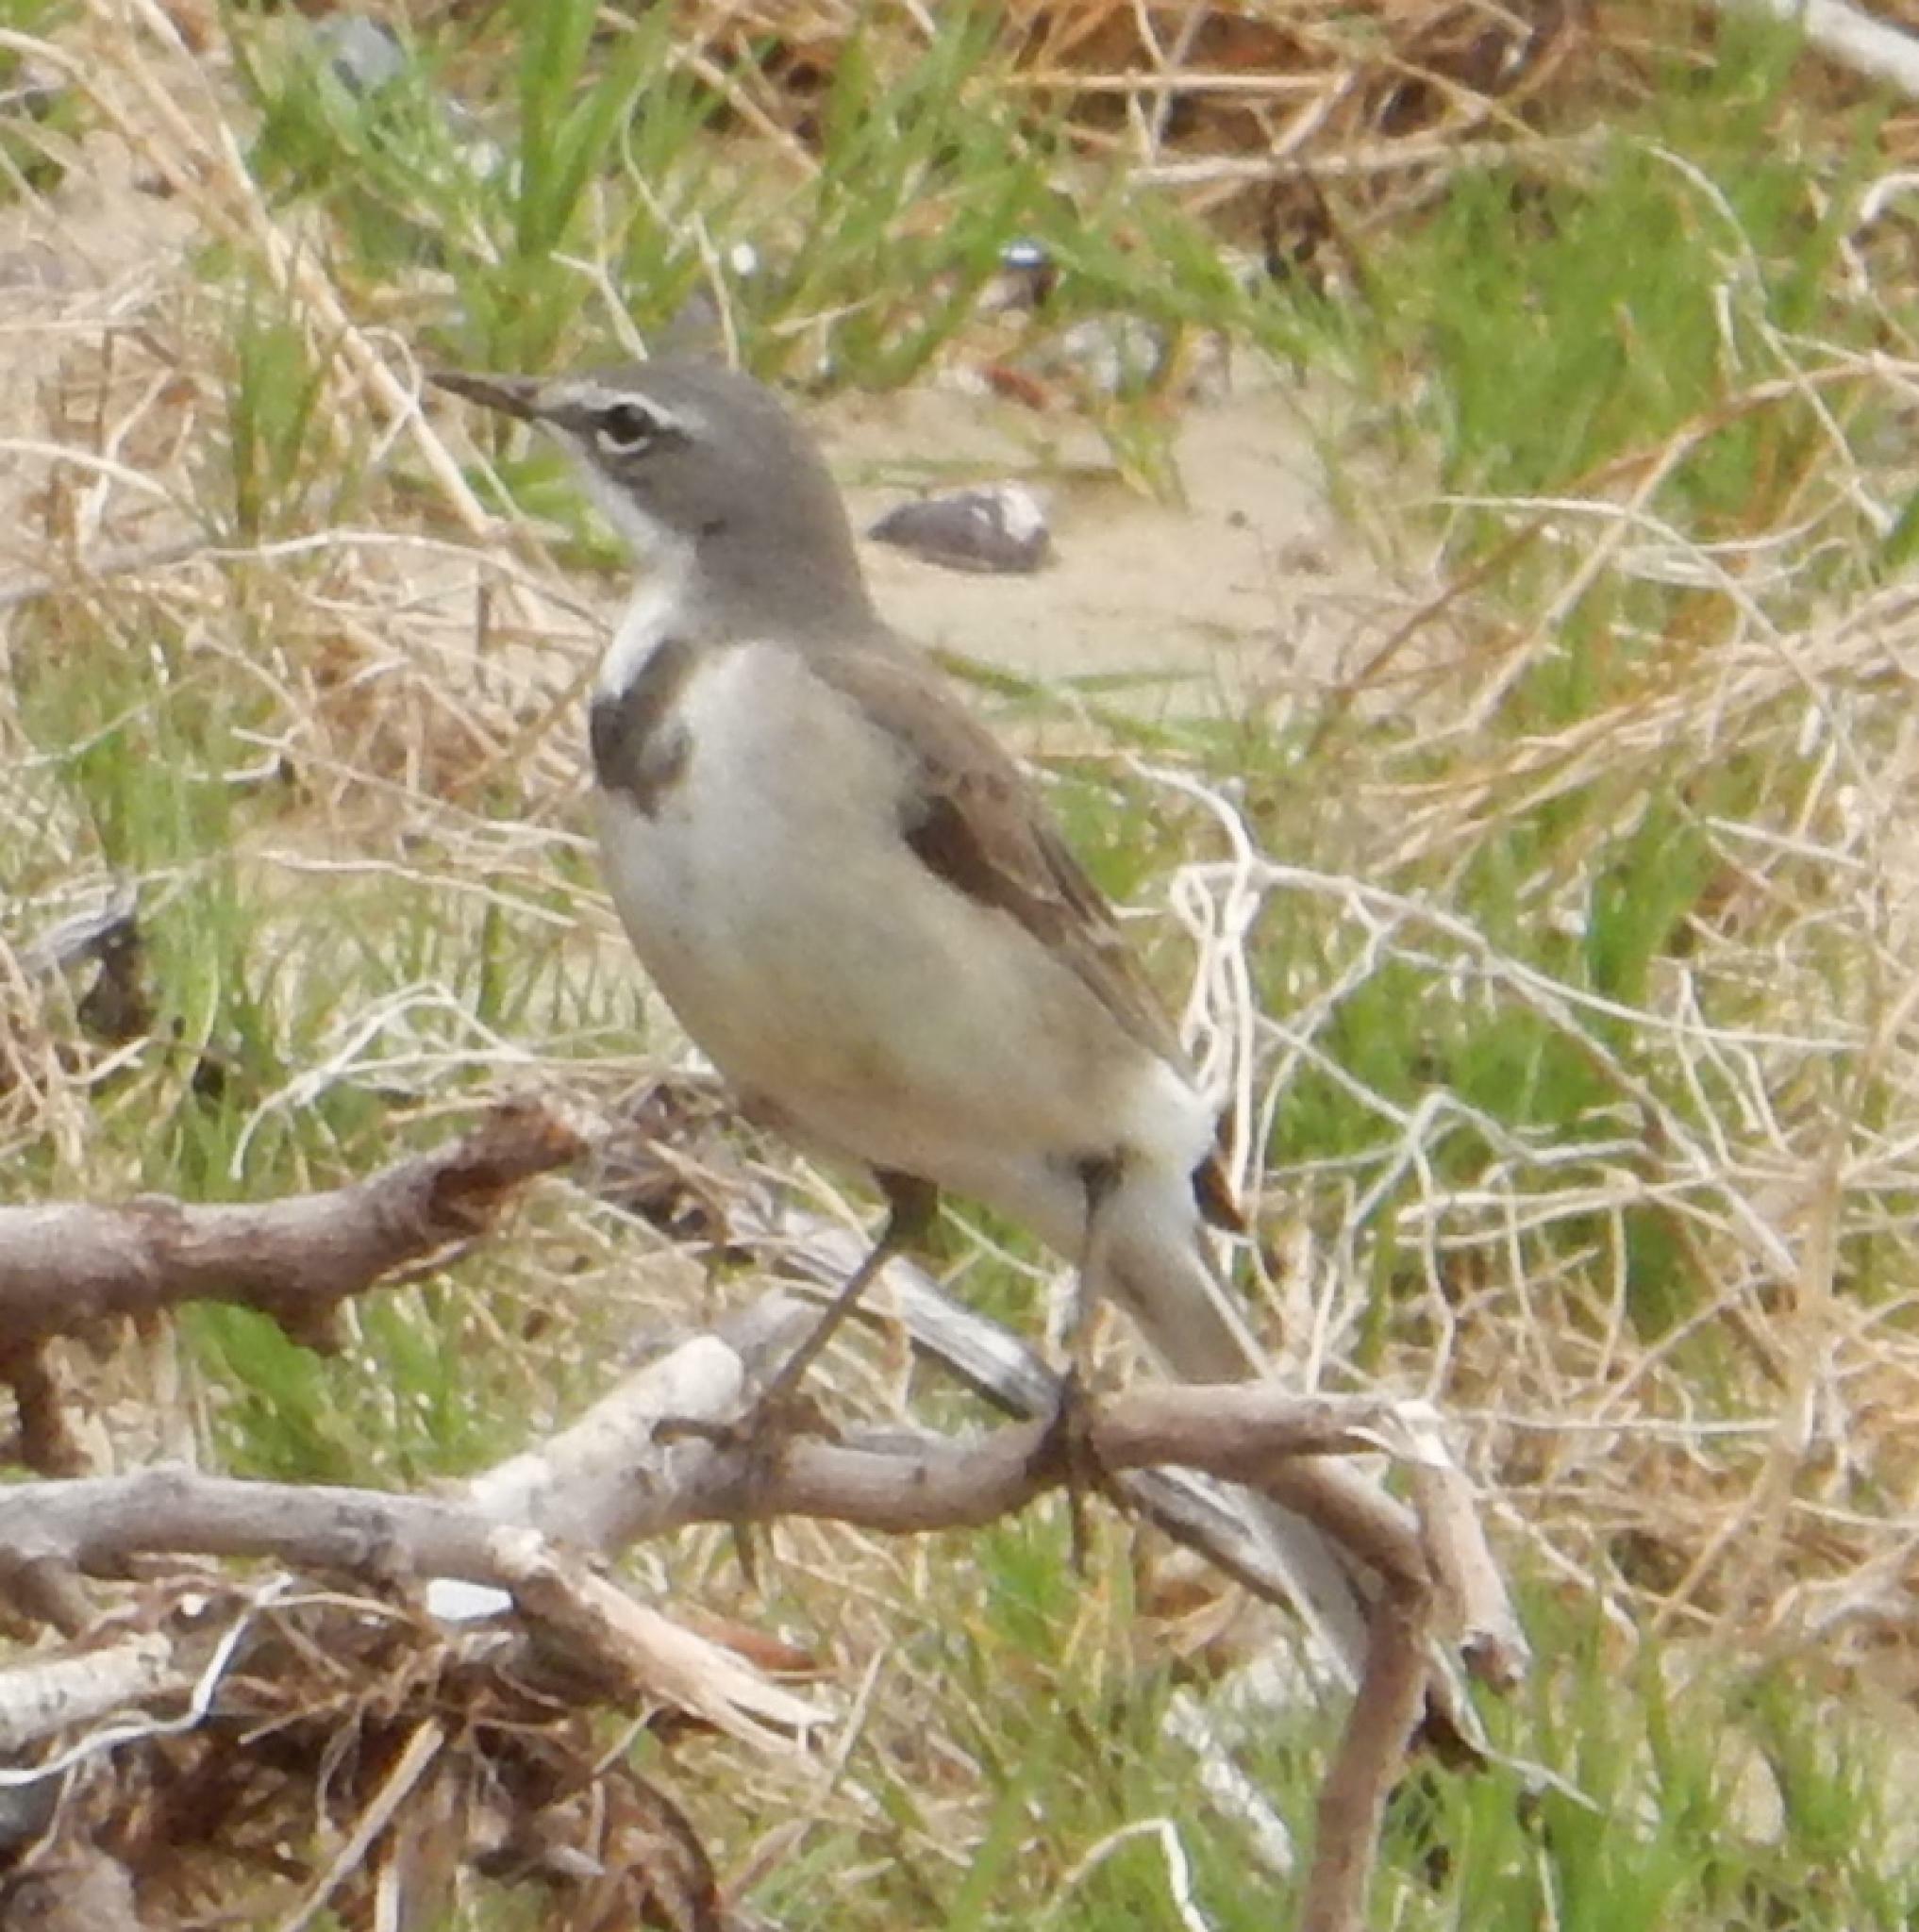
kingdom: Animalia
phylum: Chordata
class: Aves
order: Passeriformes
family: Motacillidae
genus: Motacilla
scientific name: Motacilla capensis
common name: Cape wagtail
